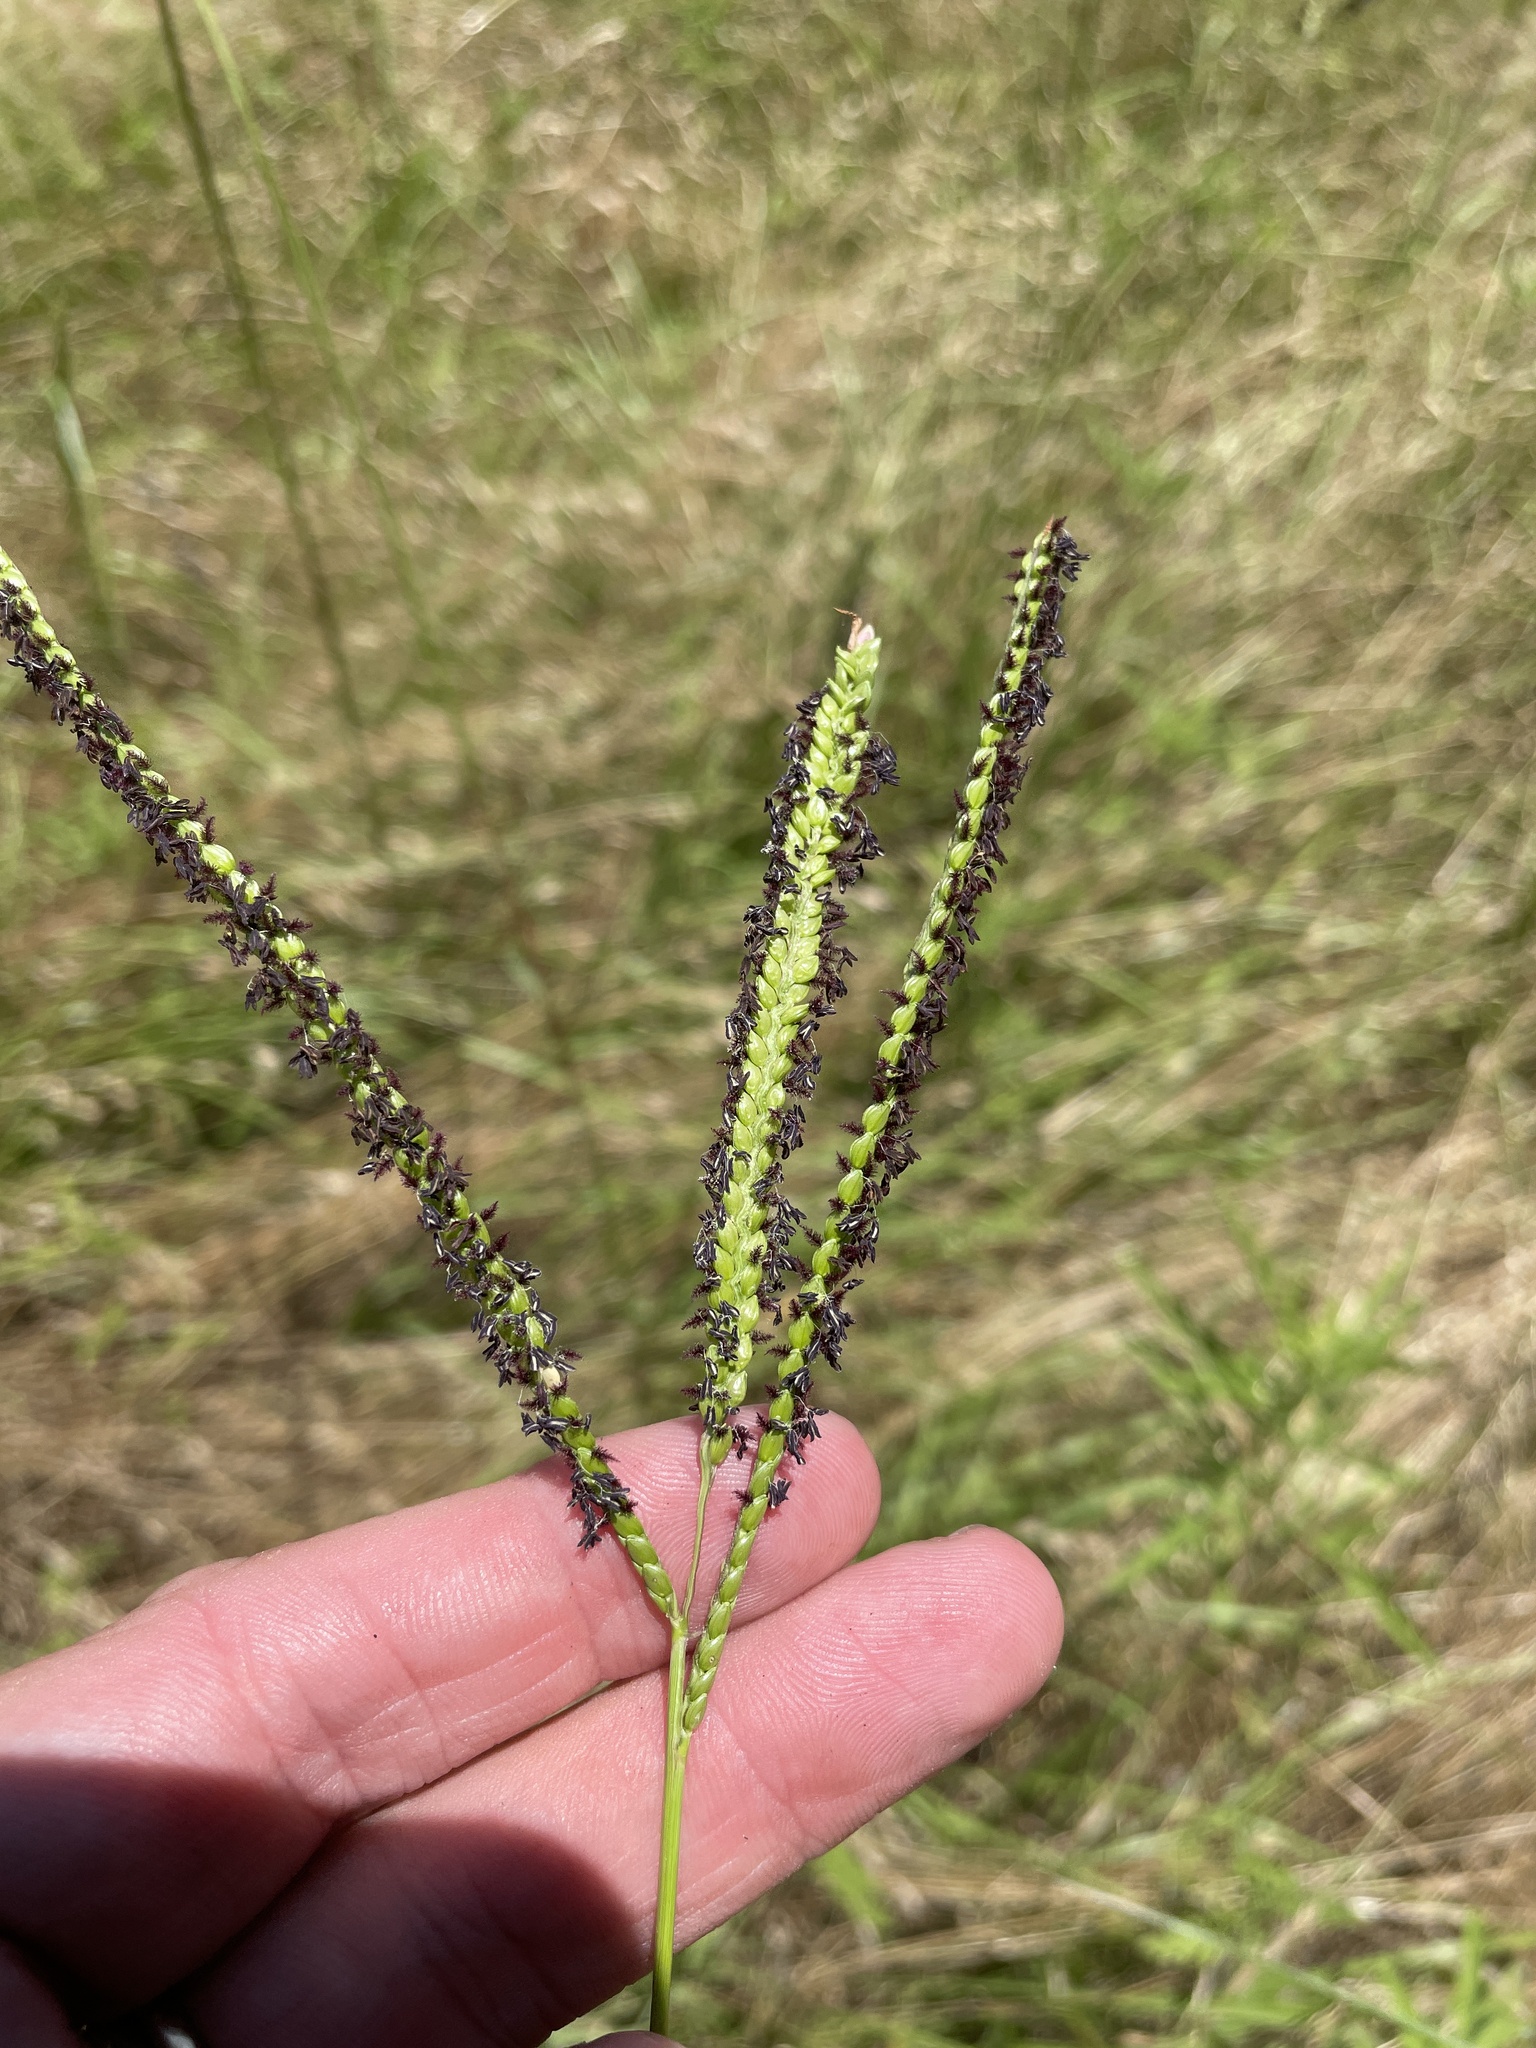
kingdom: Plantae
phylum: Tracheophyta
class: Liliopsida
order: Poales
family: Poaceae
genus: Paspalum
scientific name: Paspalum notatum
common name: Bahiagrass
